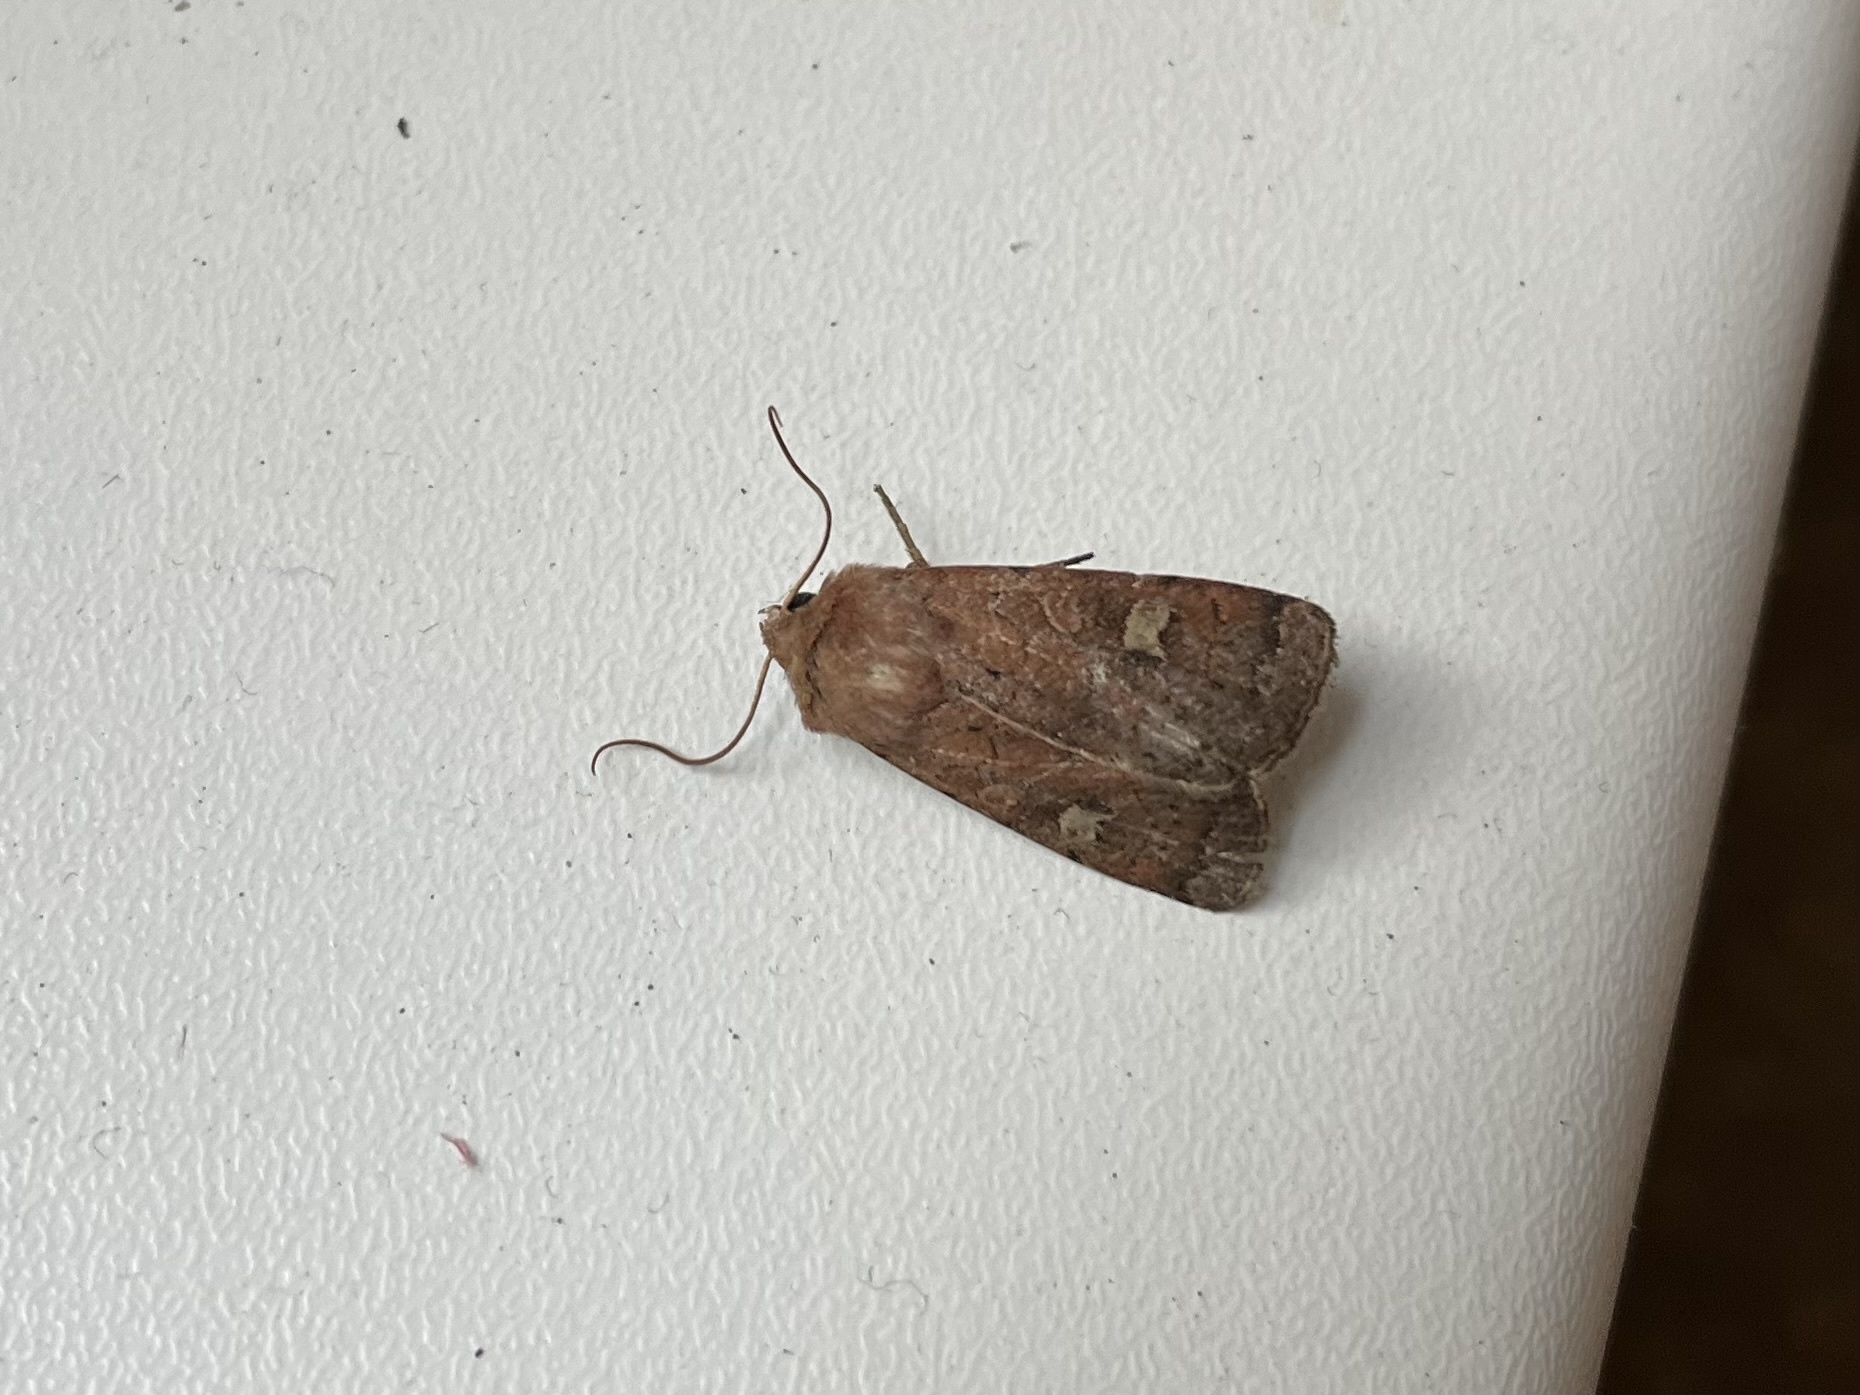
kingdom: Animalia
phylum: Arthropoda
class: Insecta
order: Lepidoptera
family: Noctuidae
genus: Xestia
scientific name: Xestia xanthographa
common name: Square-spot rustic
